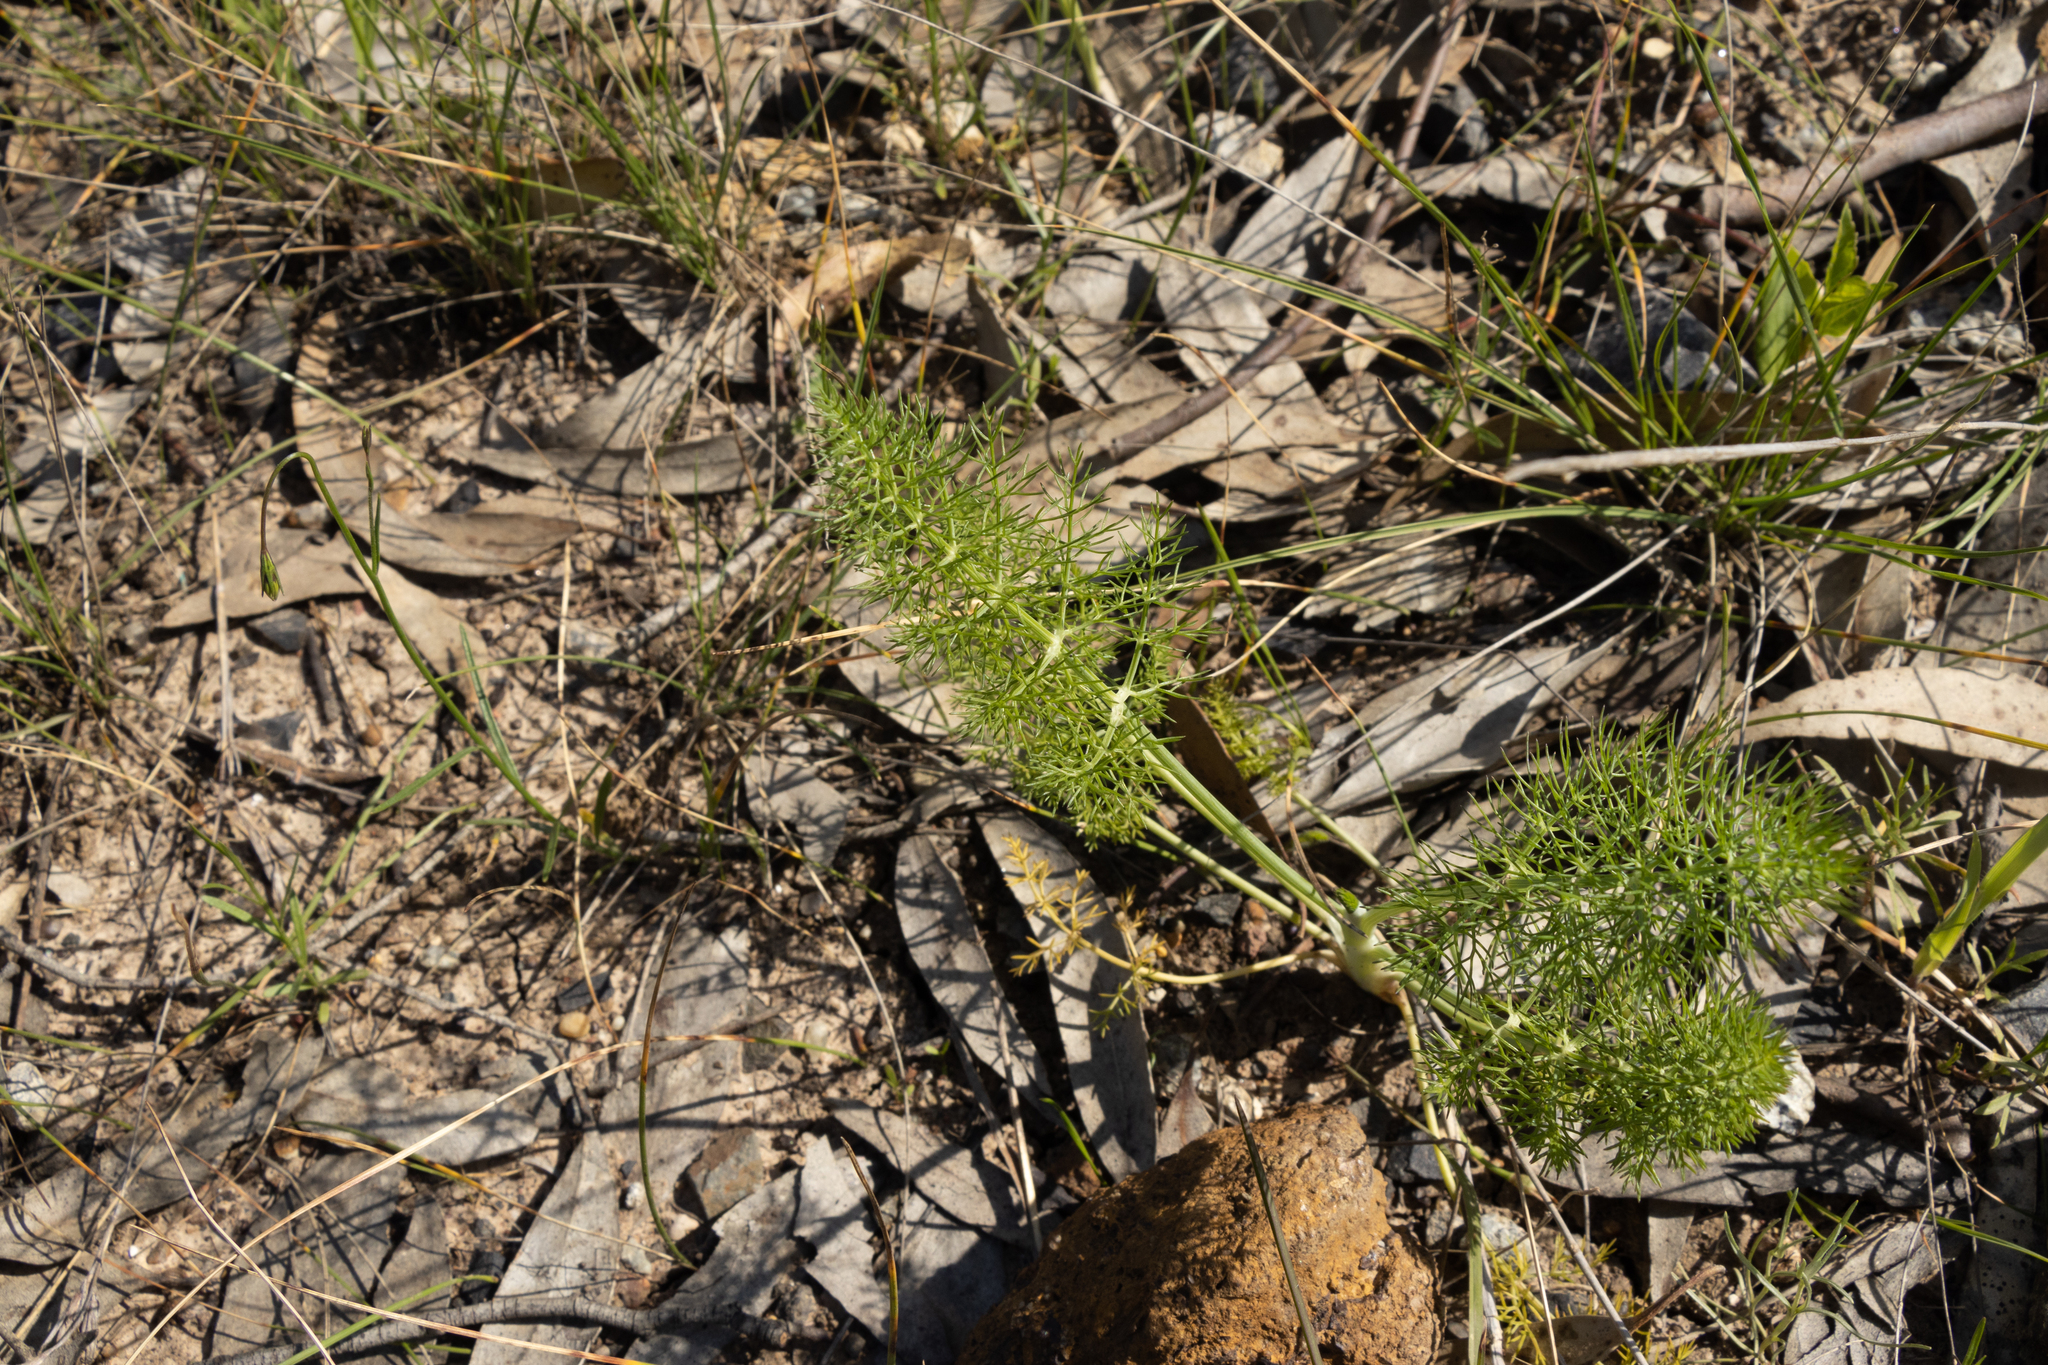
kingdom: Plantae
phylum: Tracheophyta
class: Magnoliopsida
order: Apiales
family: Apiaceae
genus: Foeniculum
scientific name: Foeniculum vulgare
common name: Fennel
